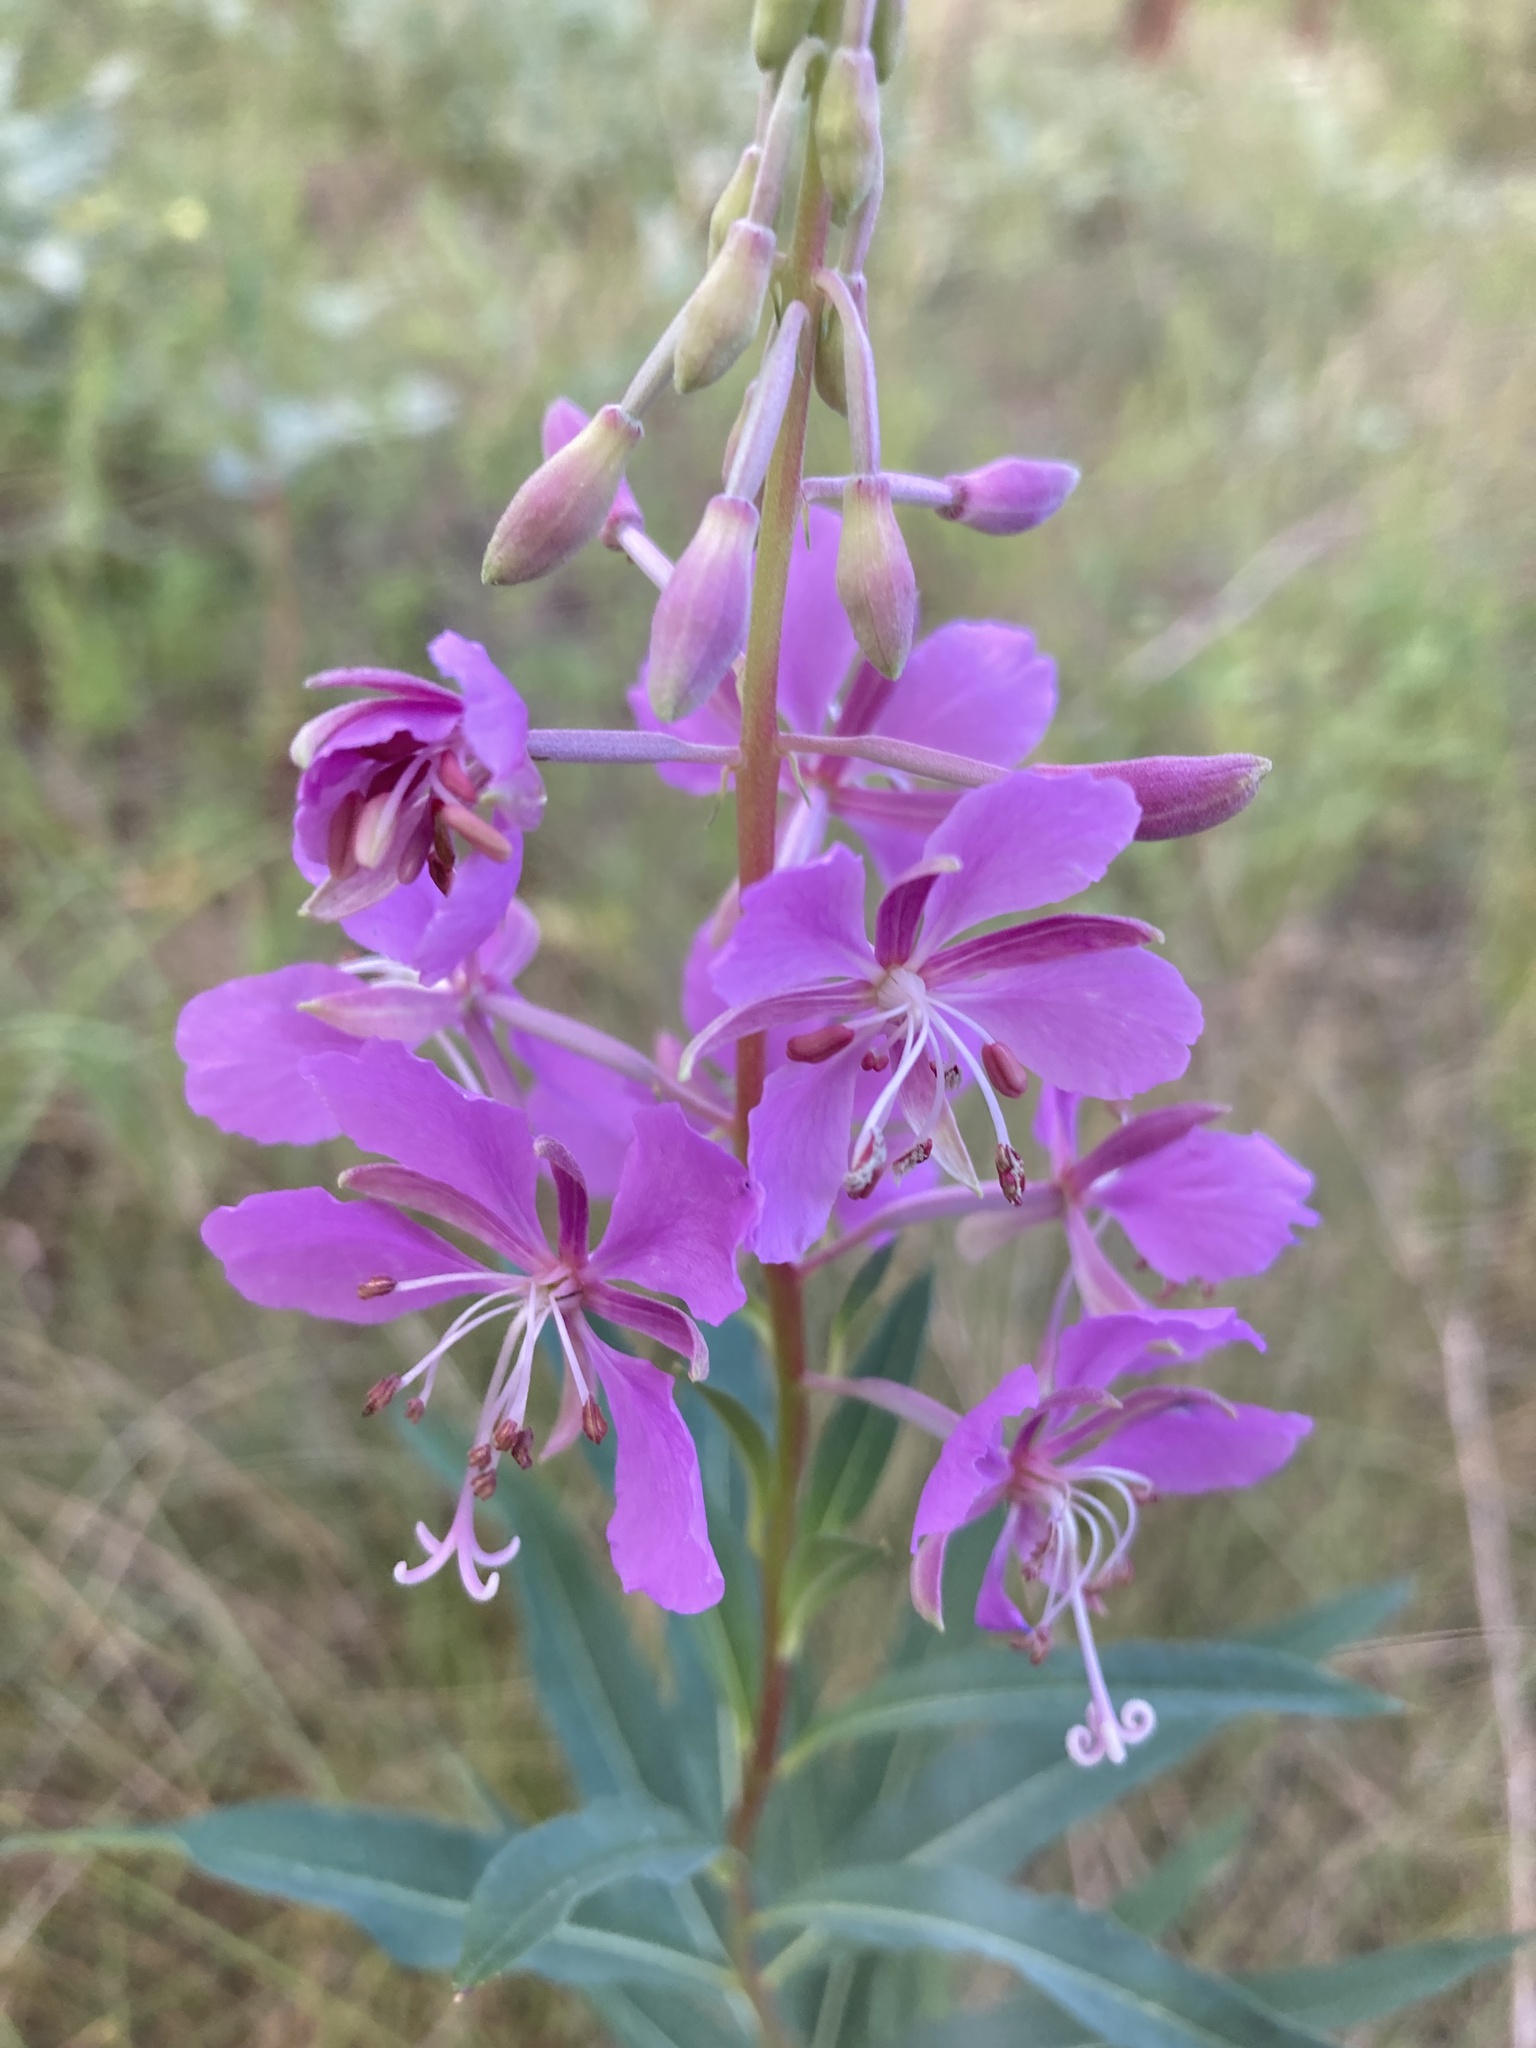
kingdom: Plantae
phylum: Tracheophyta
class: Magnoliopsida
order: Myrtales
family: Onagraceae
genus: Chamaenerion
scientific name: Chamaenerion angustifolium
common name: Fireweed
